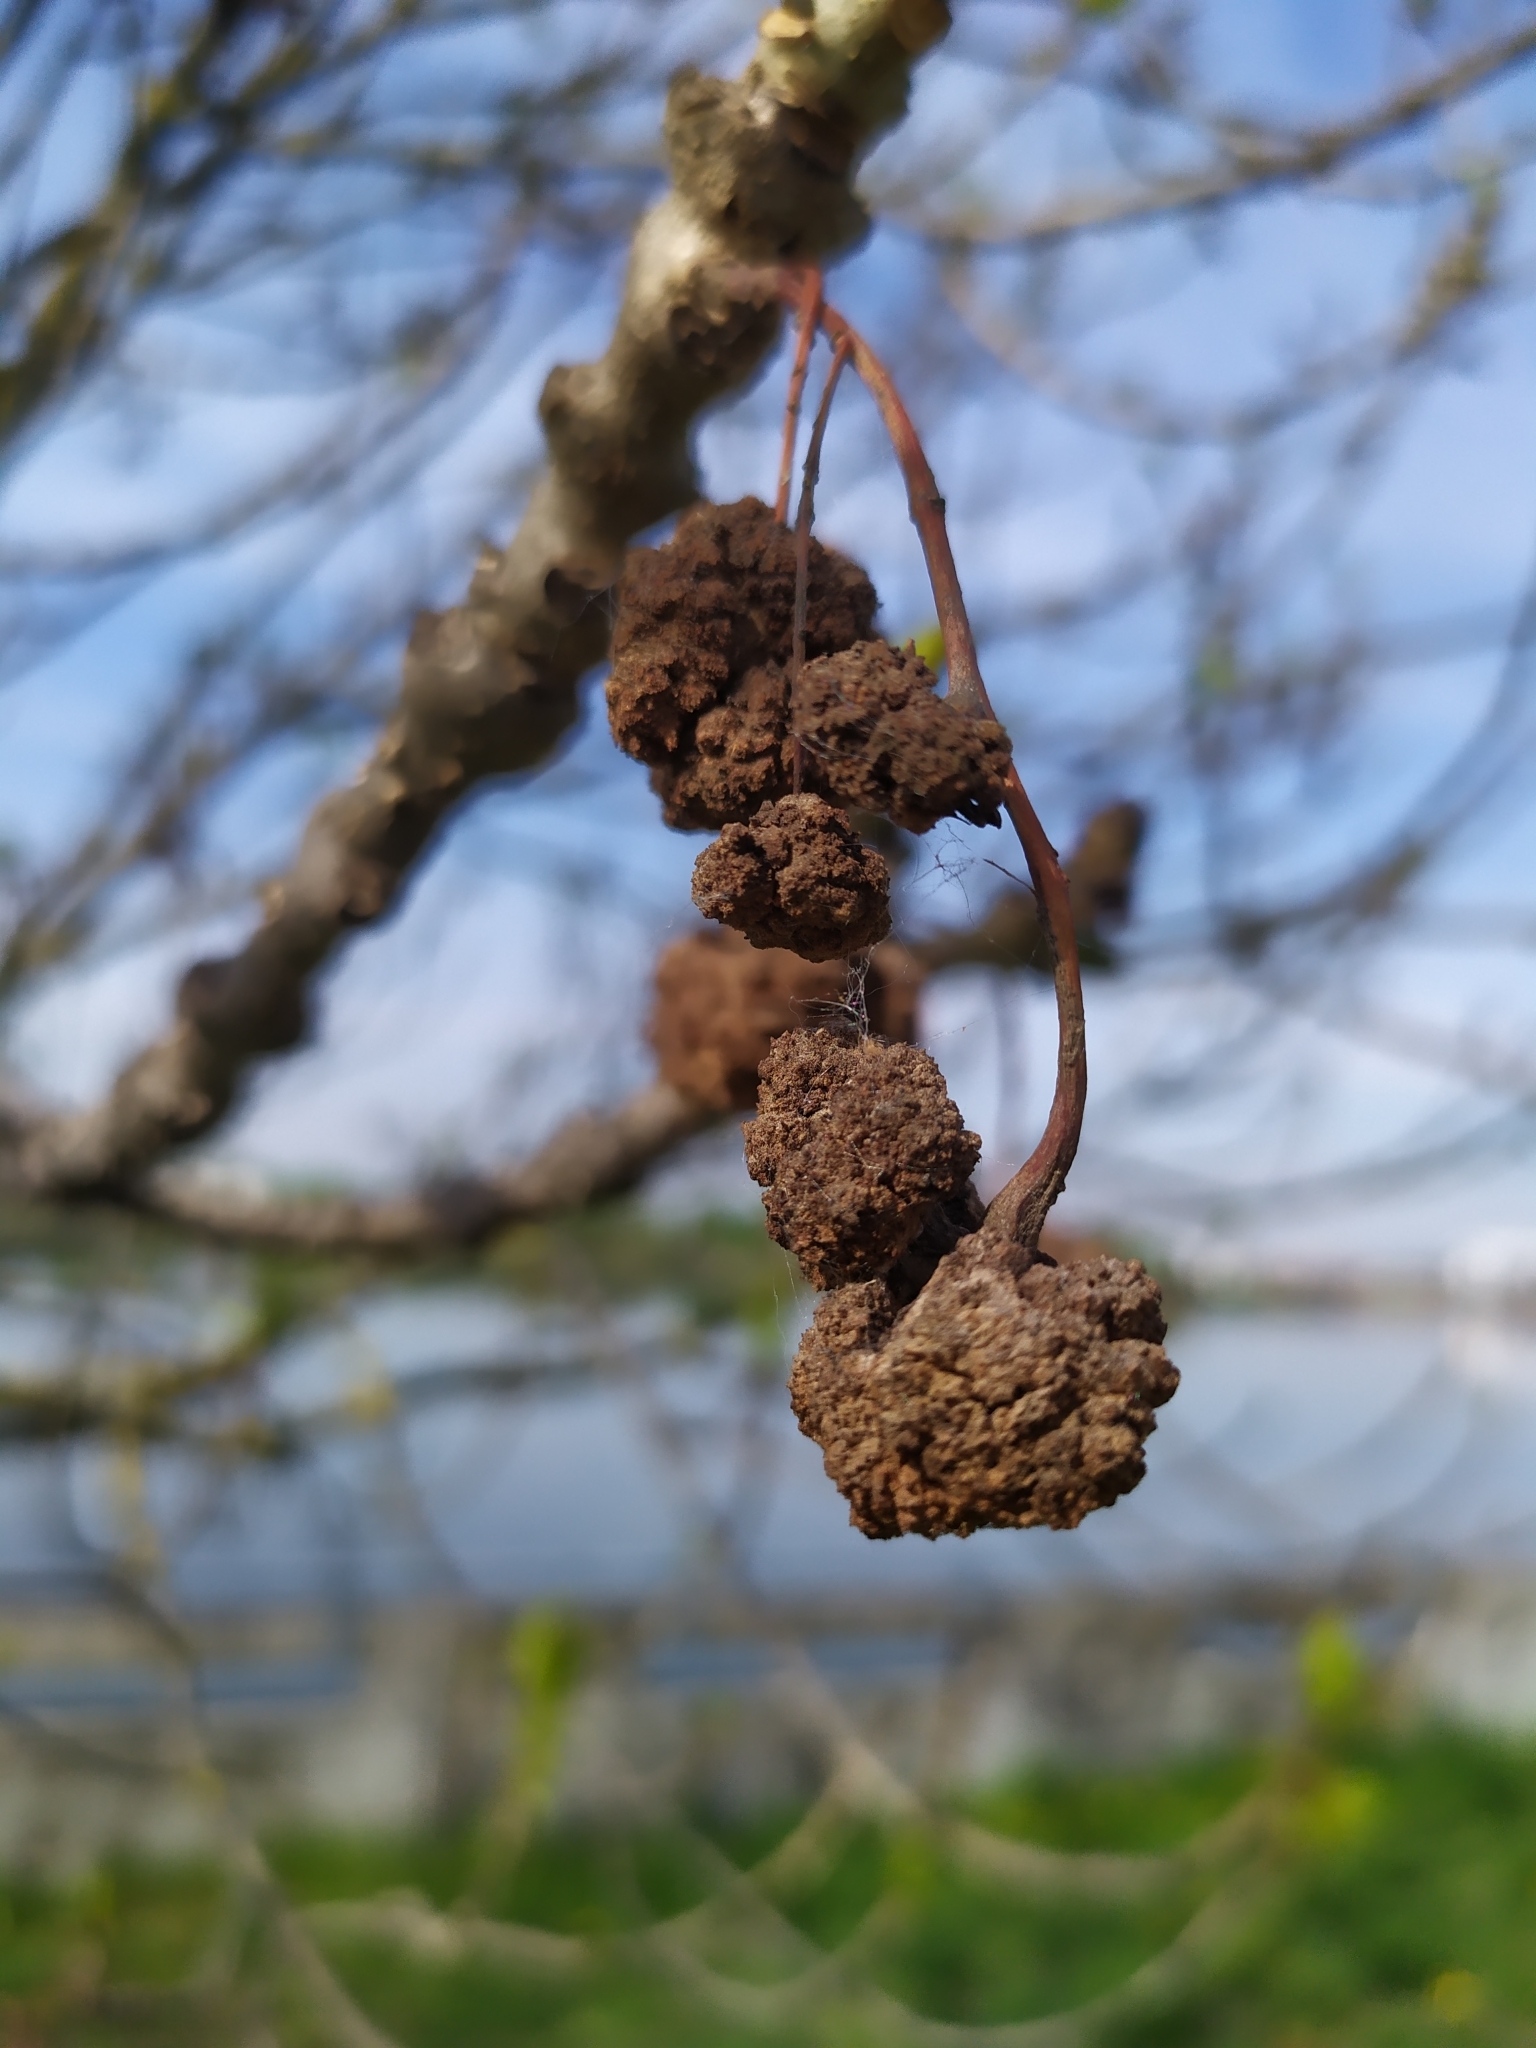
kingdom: Animalia
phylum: Arthropoda
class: Arachnida
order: Trombidiformes
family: Eriophyidae
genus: Aceria
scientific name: Aceria fraxinivora
